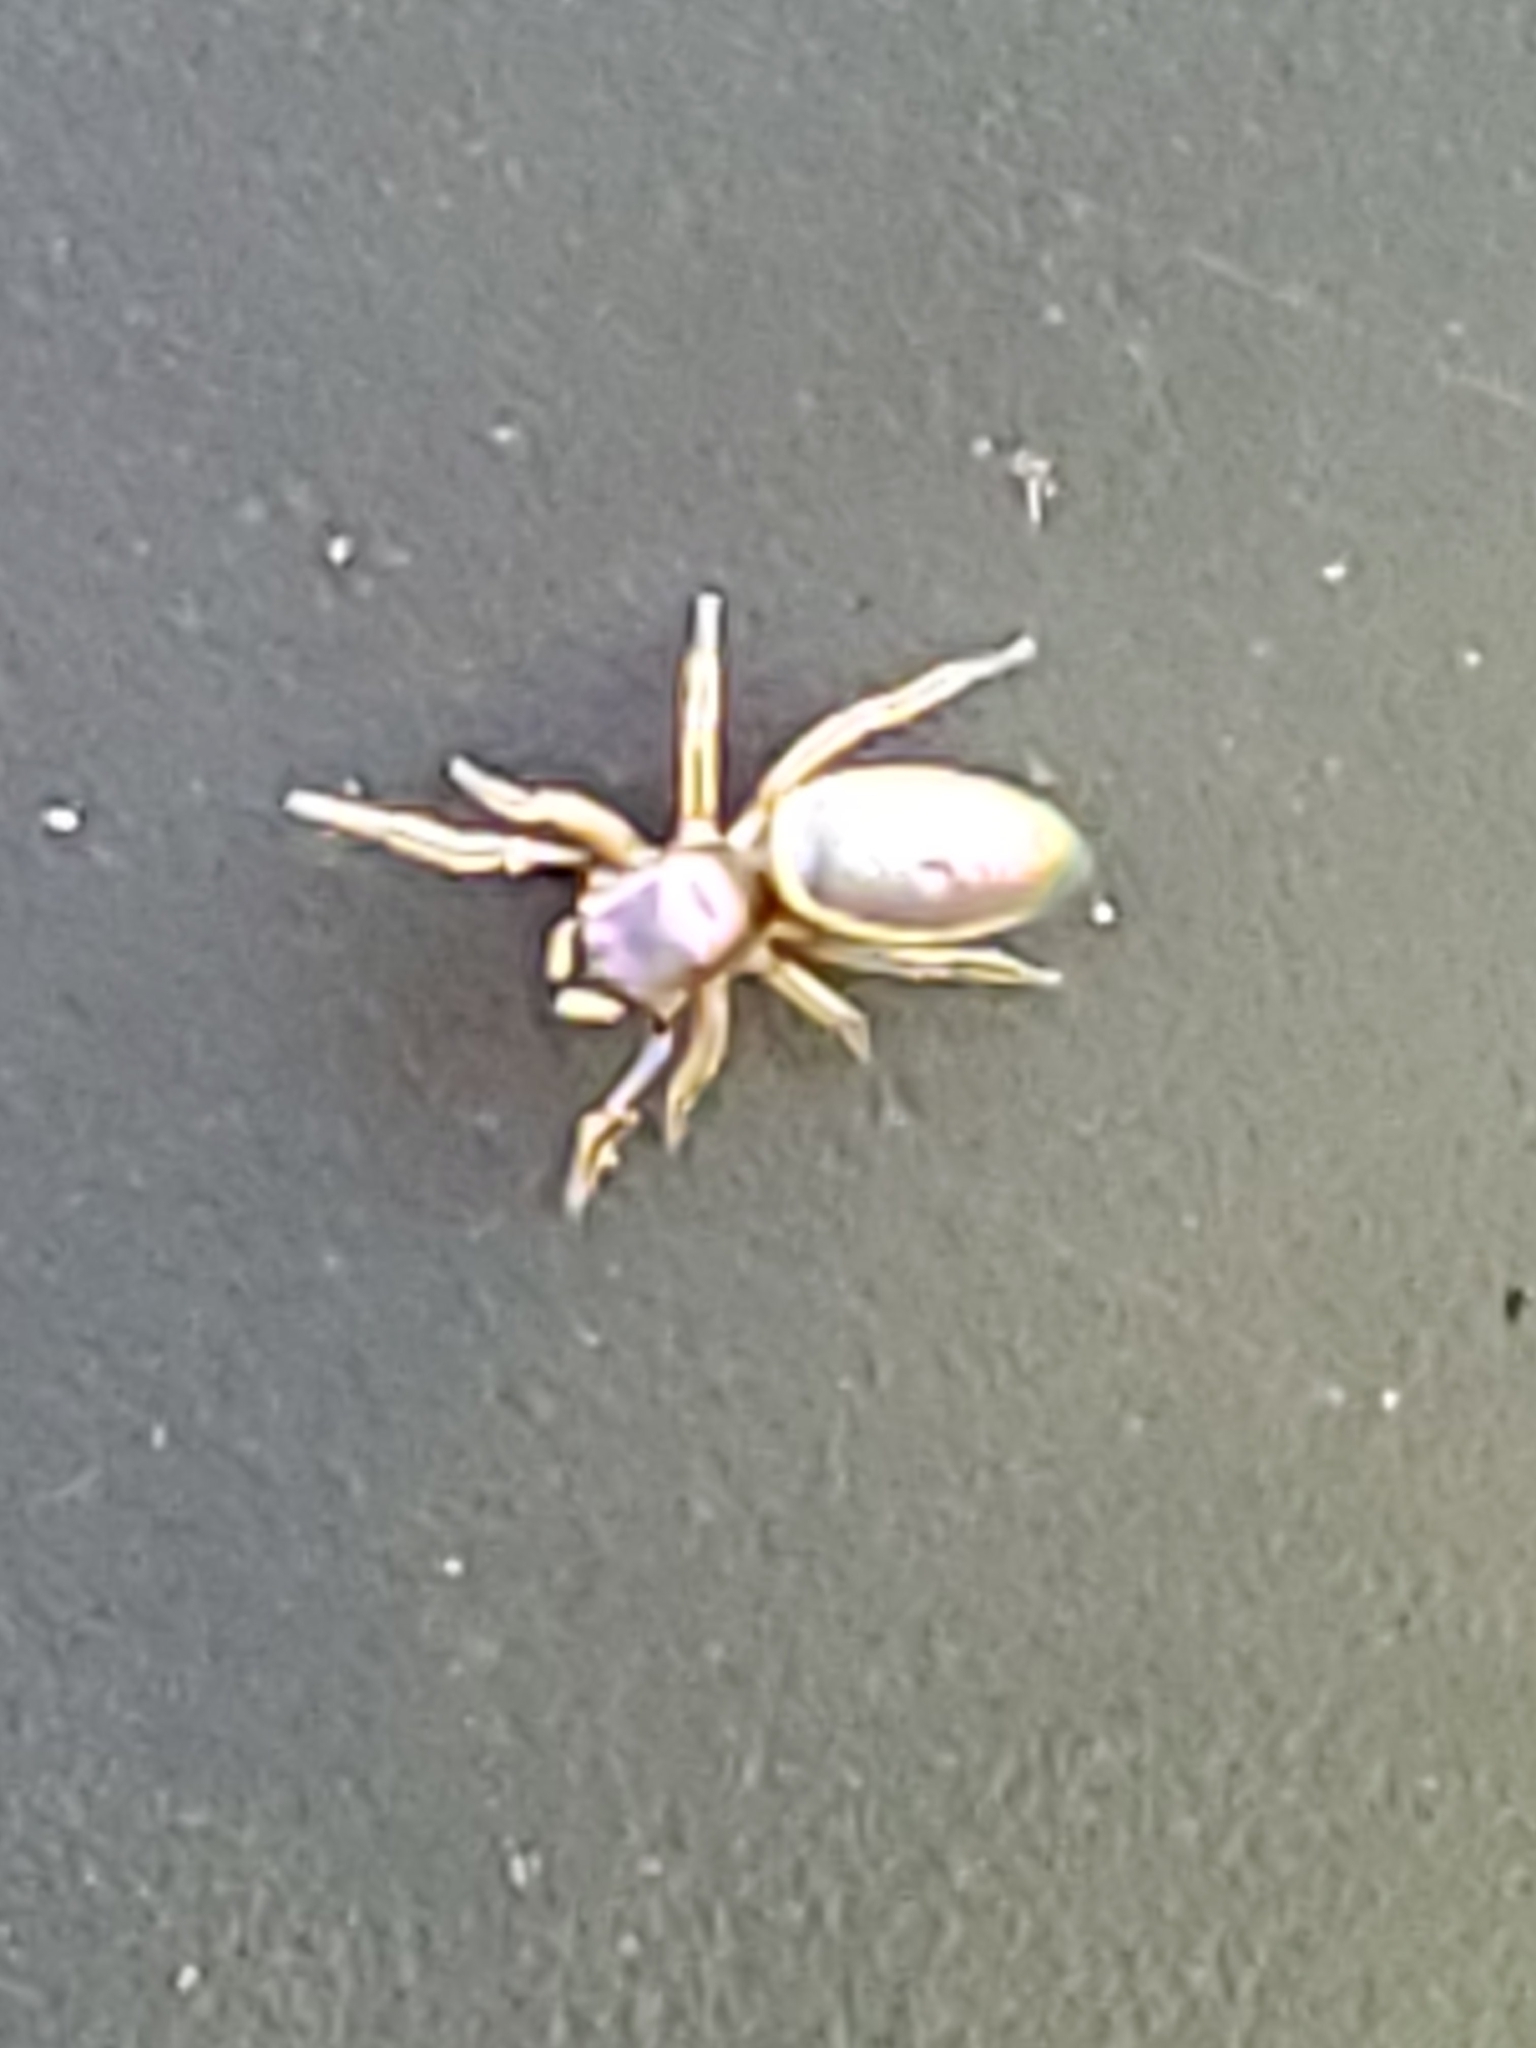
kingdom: Animalia
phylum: Arthropoda
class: Arachnida
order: Araneae
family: Salticidae
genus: Tutelina
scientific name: Tutelina elegans
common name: Thin-spined jumping spider
